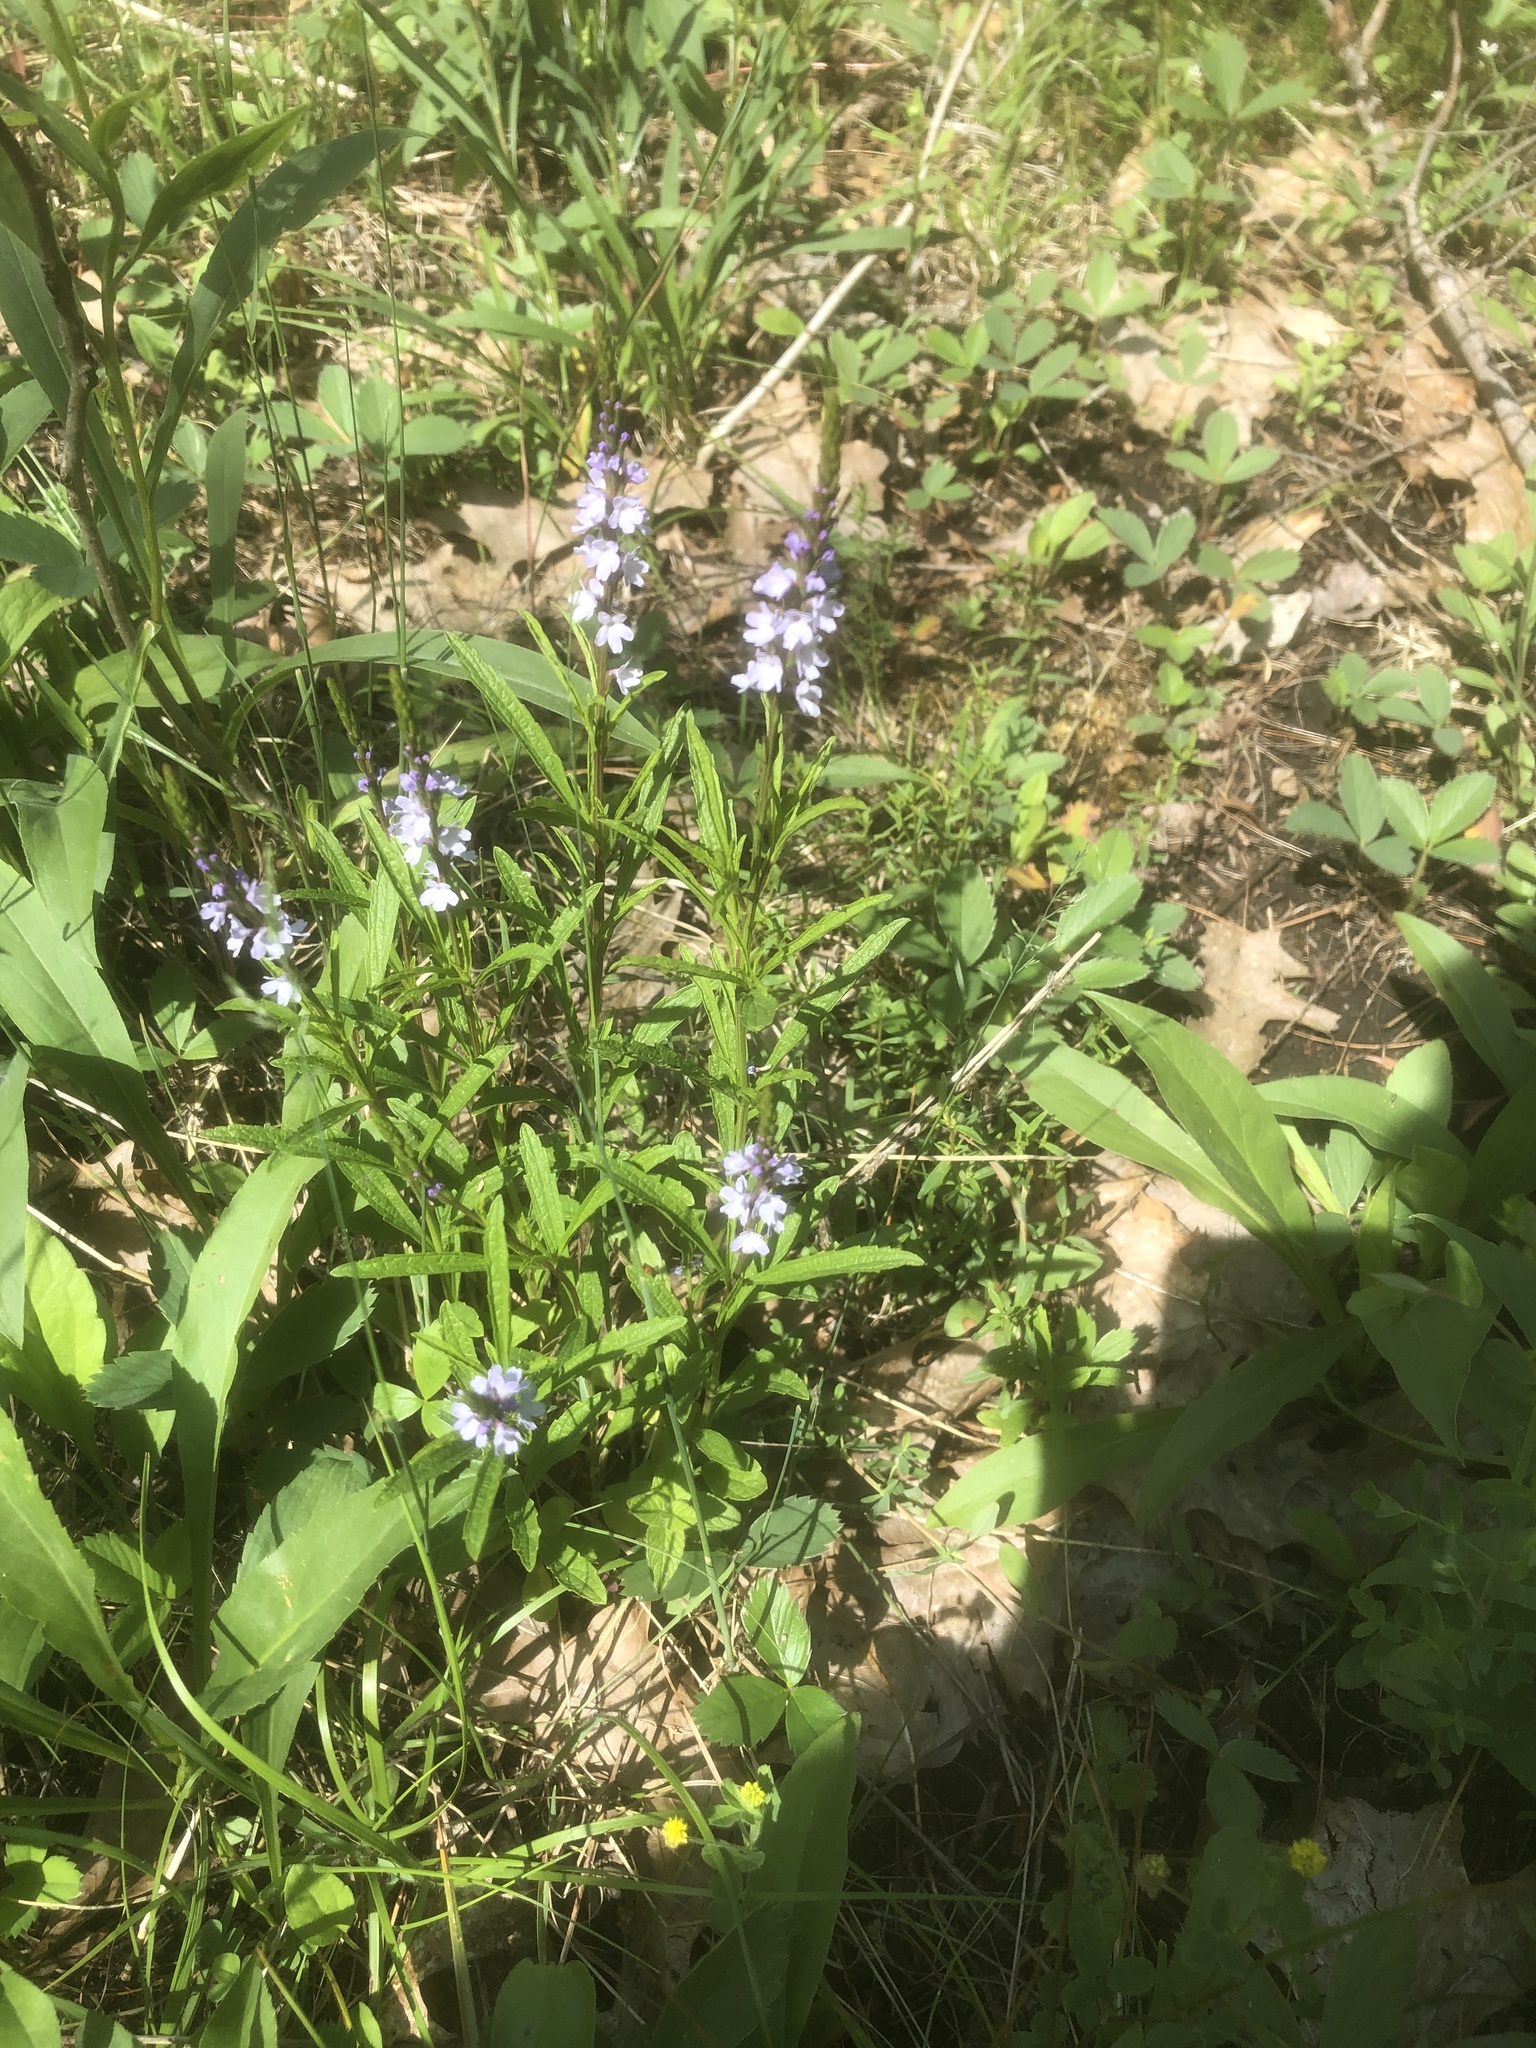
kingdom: Plantae
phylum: Tracheophyta
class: Magnoliopsida
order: Lamiales
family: Verbenaceae
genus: Verbena
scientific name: Verbena simplex
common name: Narrow-leaf vervain
